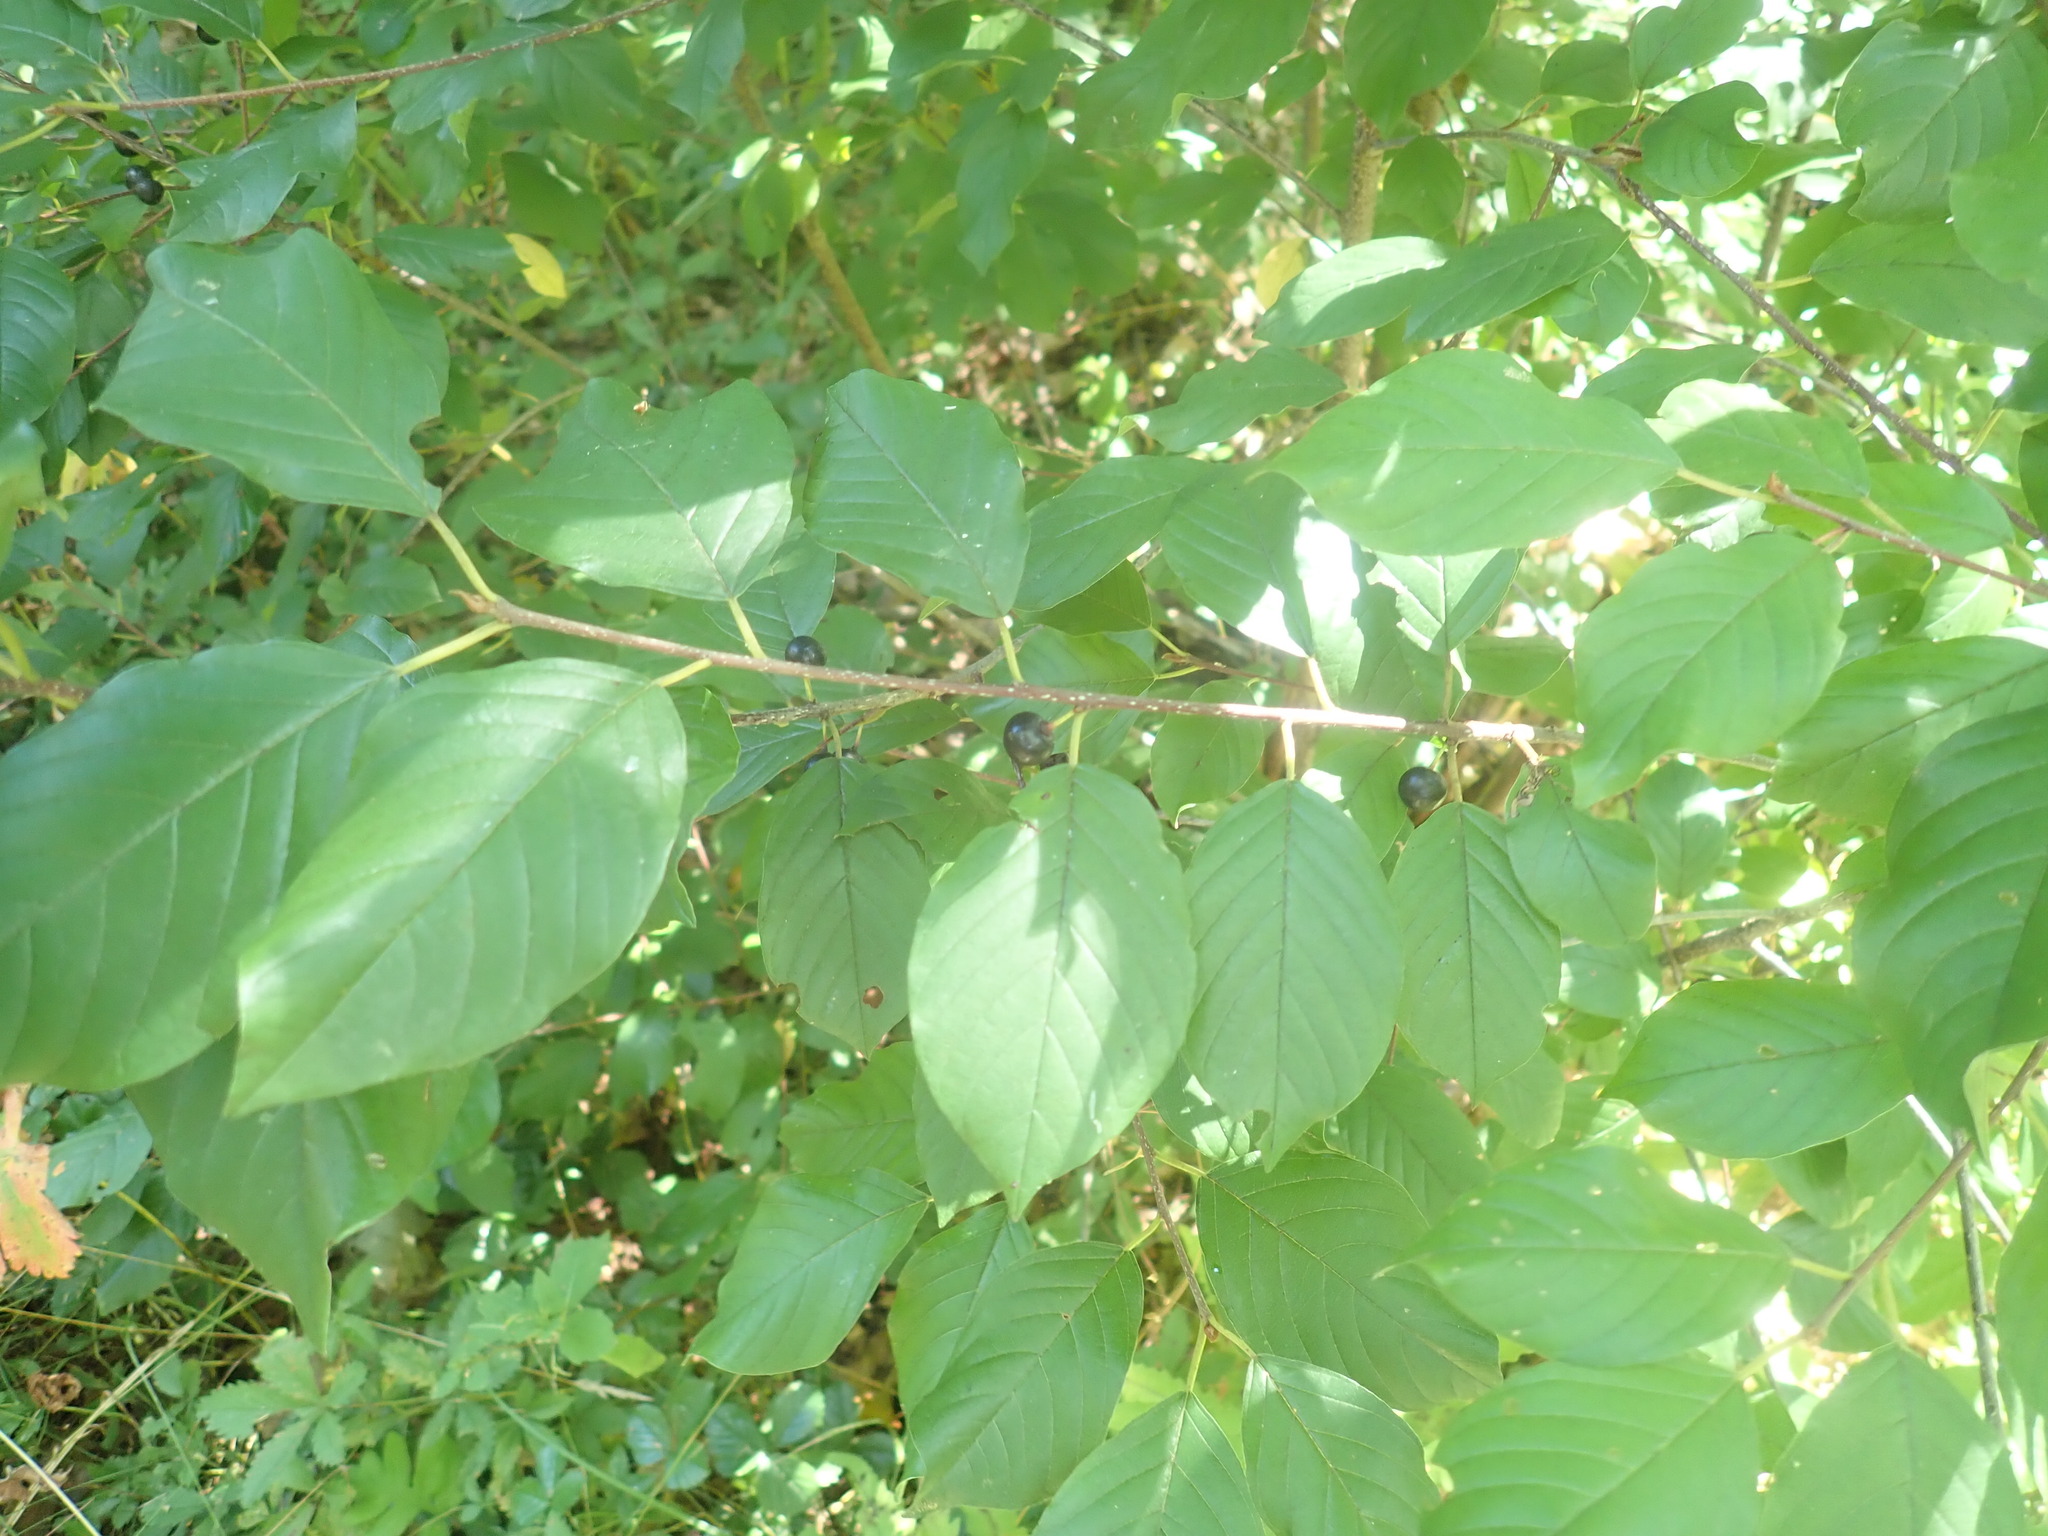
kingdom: Plantae
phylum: Tracheophyta
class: Magnoliopsida
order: Rosales
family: Rhamnaceae
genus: Frangula
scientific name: Frangula alnus
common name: Alder buckthorn
